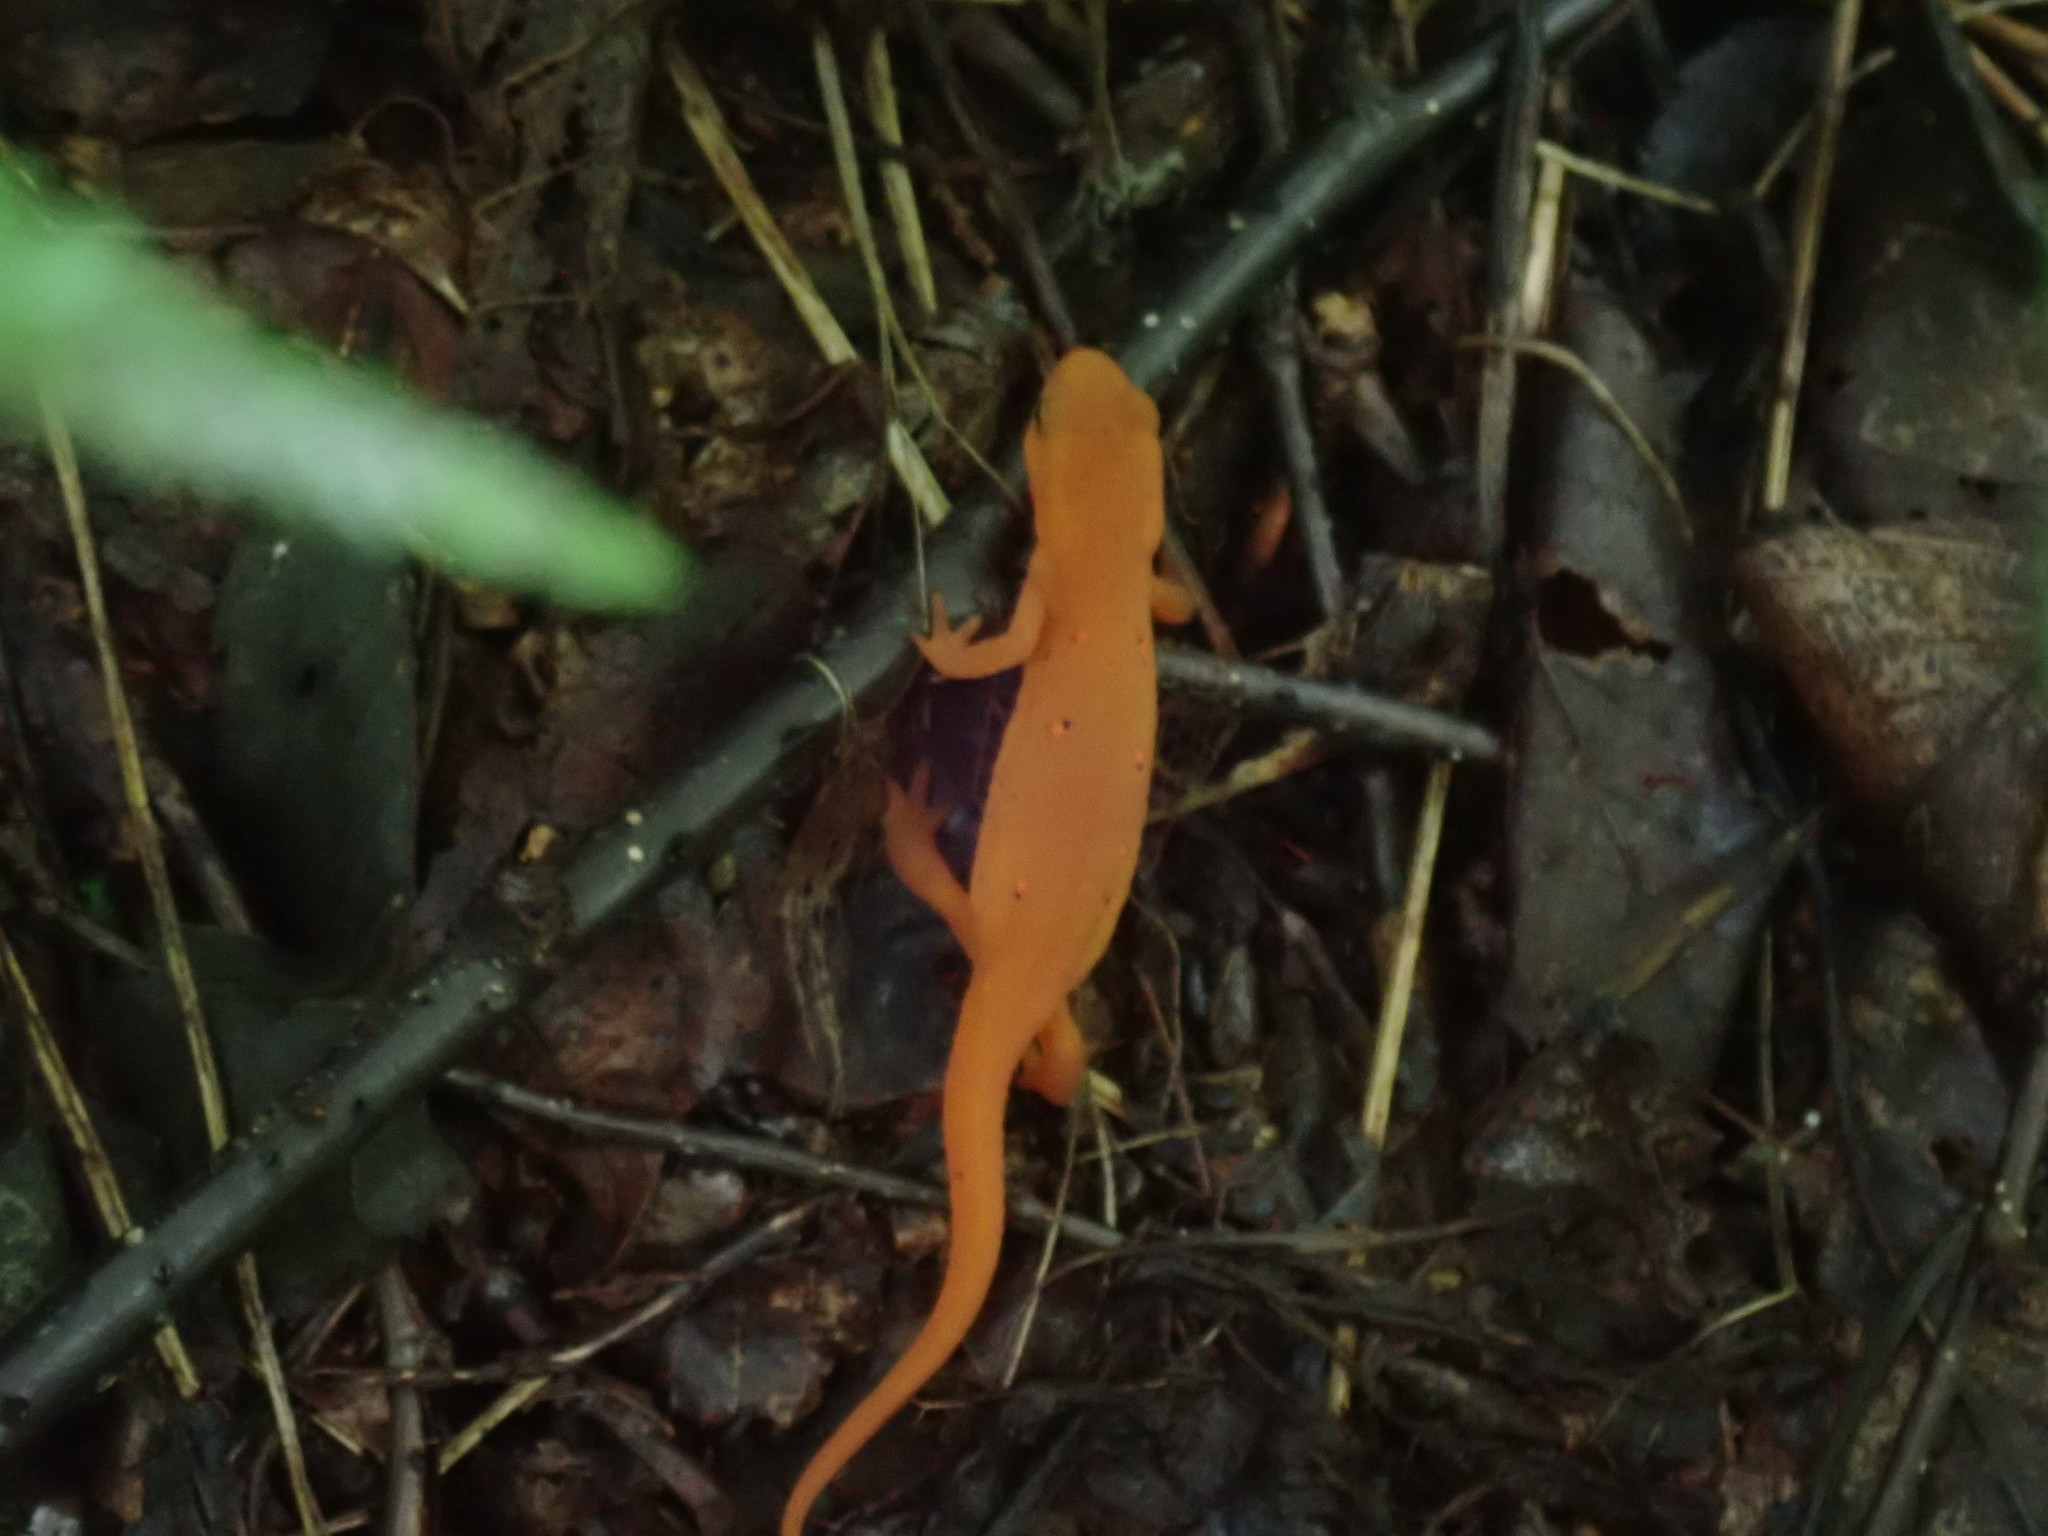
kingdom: Animalia
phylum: Chordata
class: Amphibia
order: Caudata
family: Salamandridae
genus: Notophthalmus
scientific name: Notophthalmus viridescens
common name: Eastern newt
